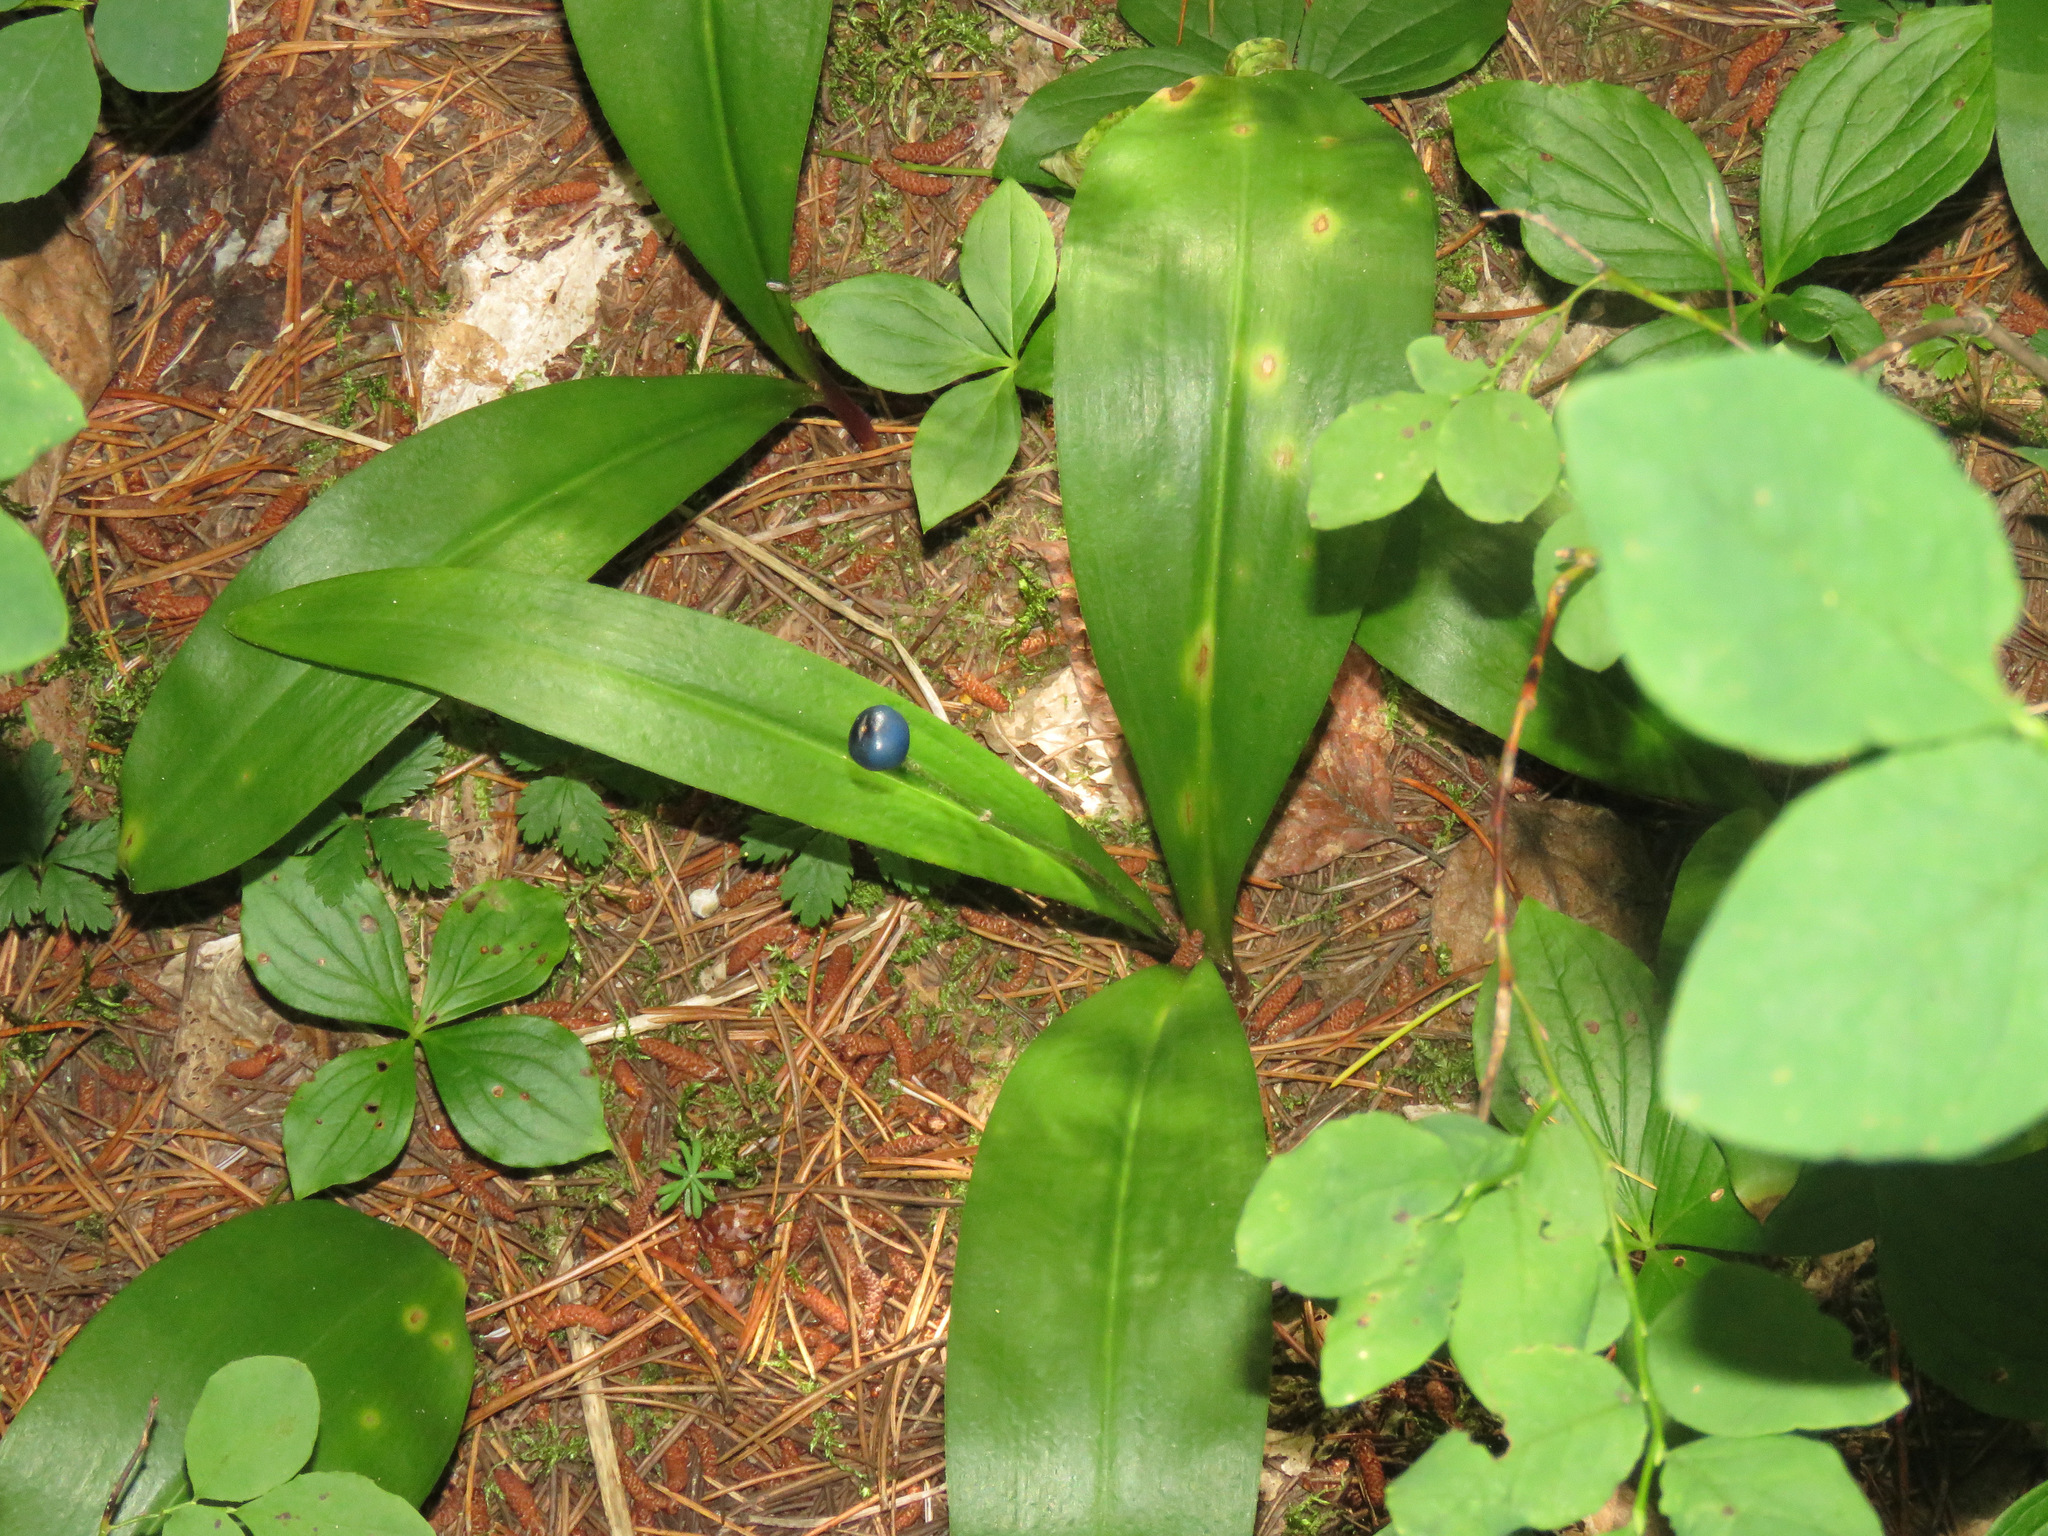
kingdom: Plantae
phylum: Tracheophyta
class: Liliopsida
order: Liliales
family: Liliaceae
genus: Clintonia
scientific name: Clintonia uniflora
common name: Queen's cup
